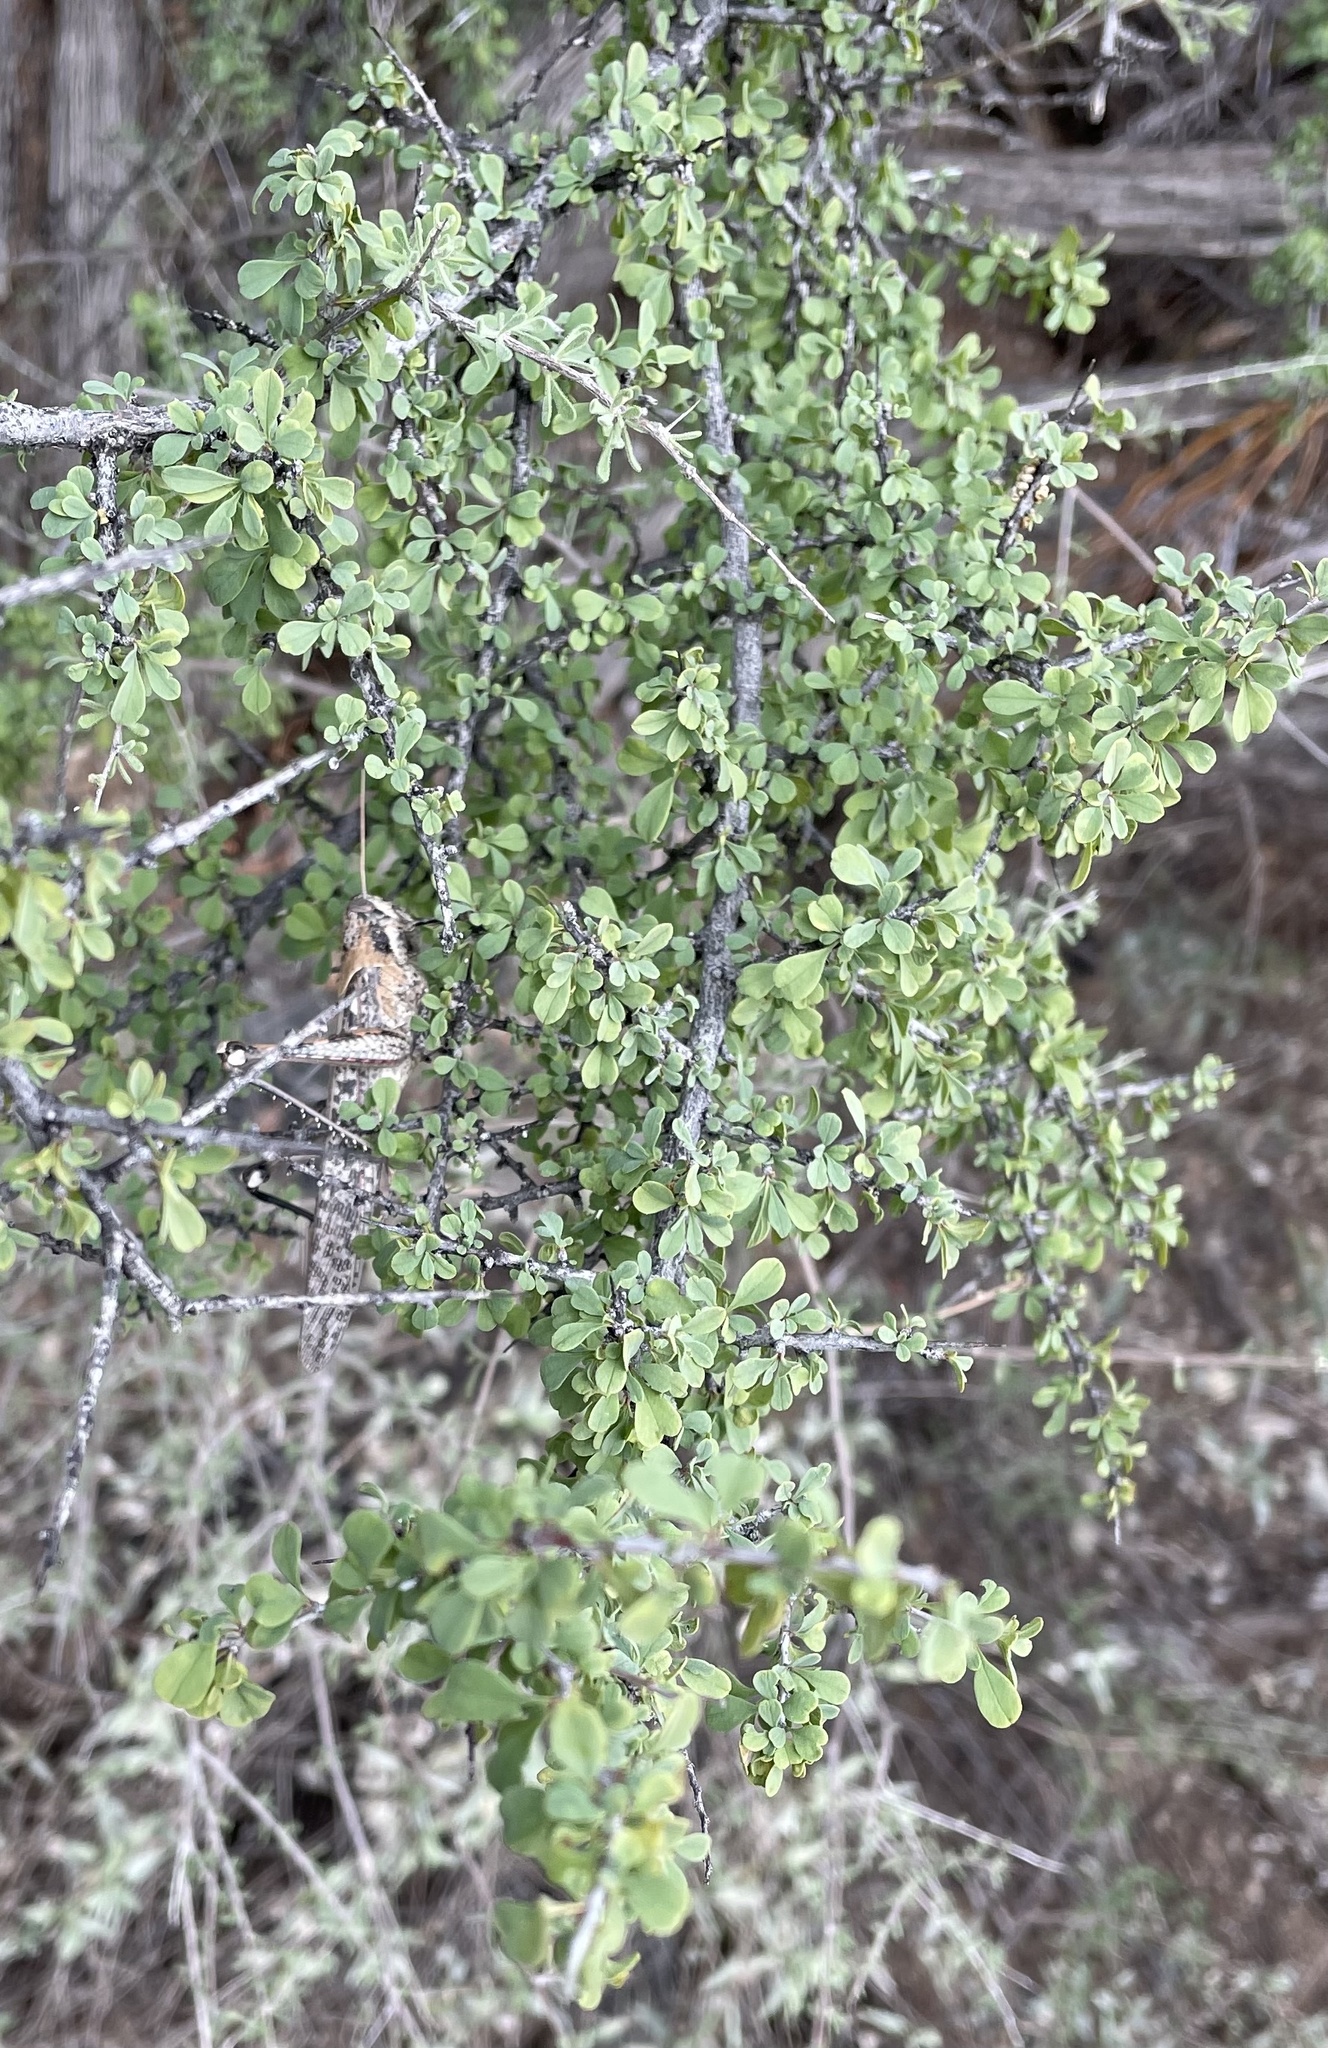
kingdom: Animalia
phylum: Arthropoda
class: Insecta
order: Orthoptera
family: Acrididae
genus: Schistocerca
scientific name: Schistocerca nitens
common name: Vagrant grasshopper
